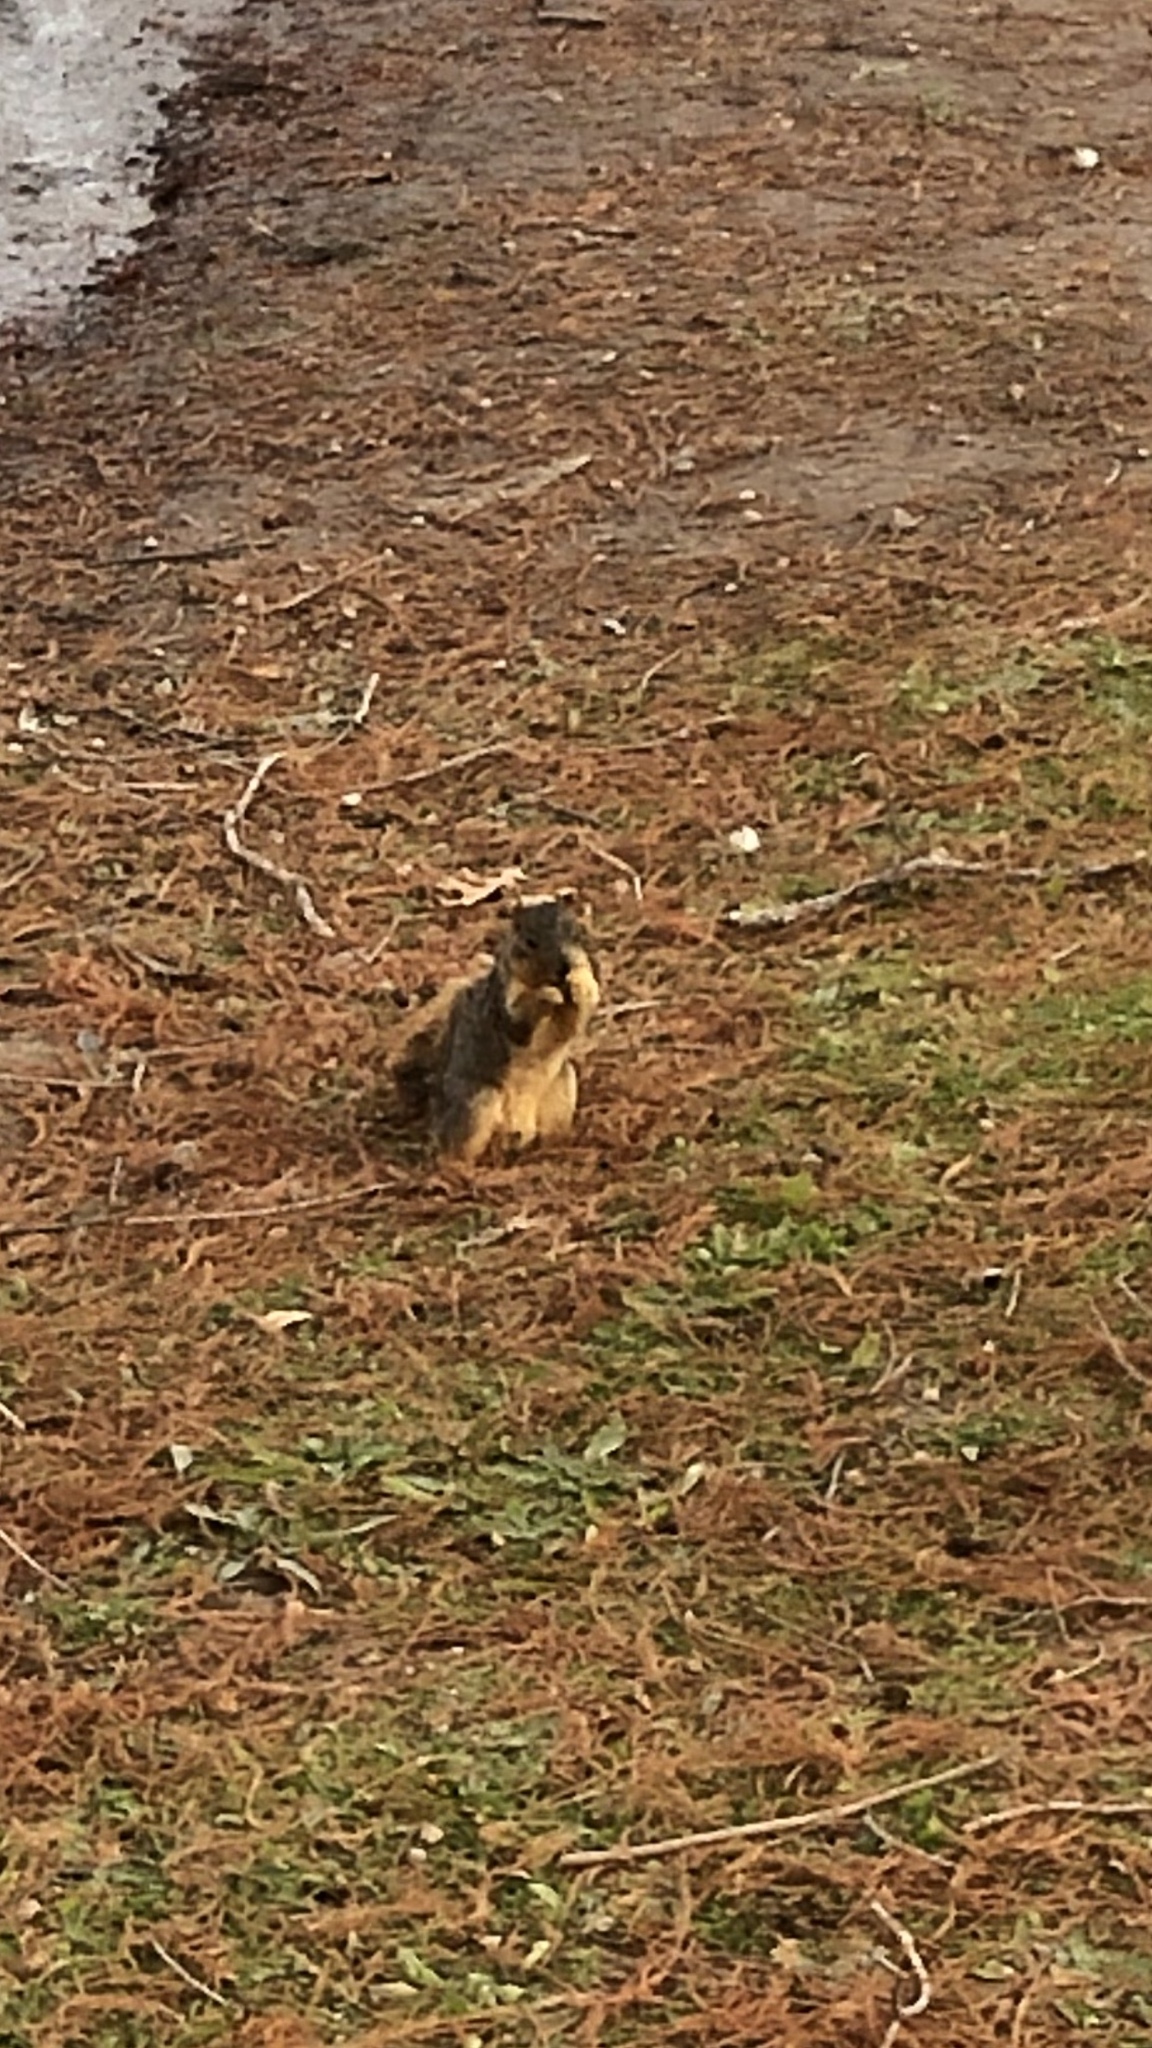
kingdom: Animalia
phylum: Chordata
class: Mammalia
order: Rodentia
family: Sciuridae
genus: Sciurus
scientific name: Sciurus niger
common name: Fox squirrel
